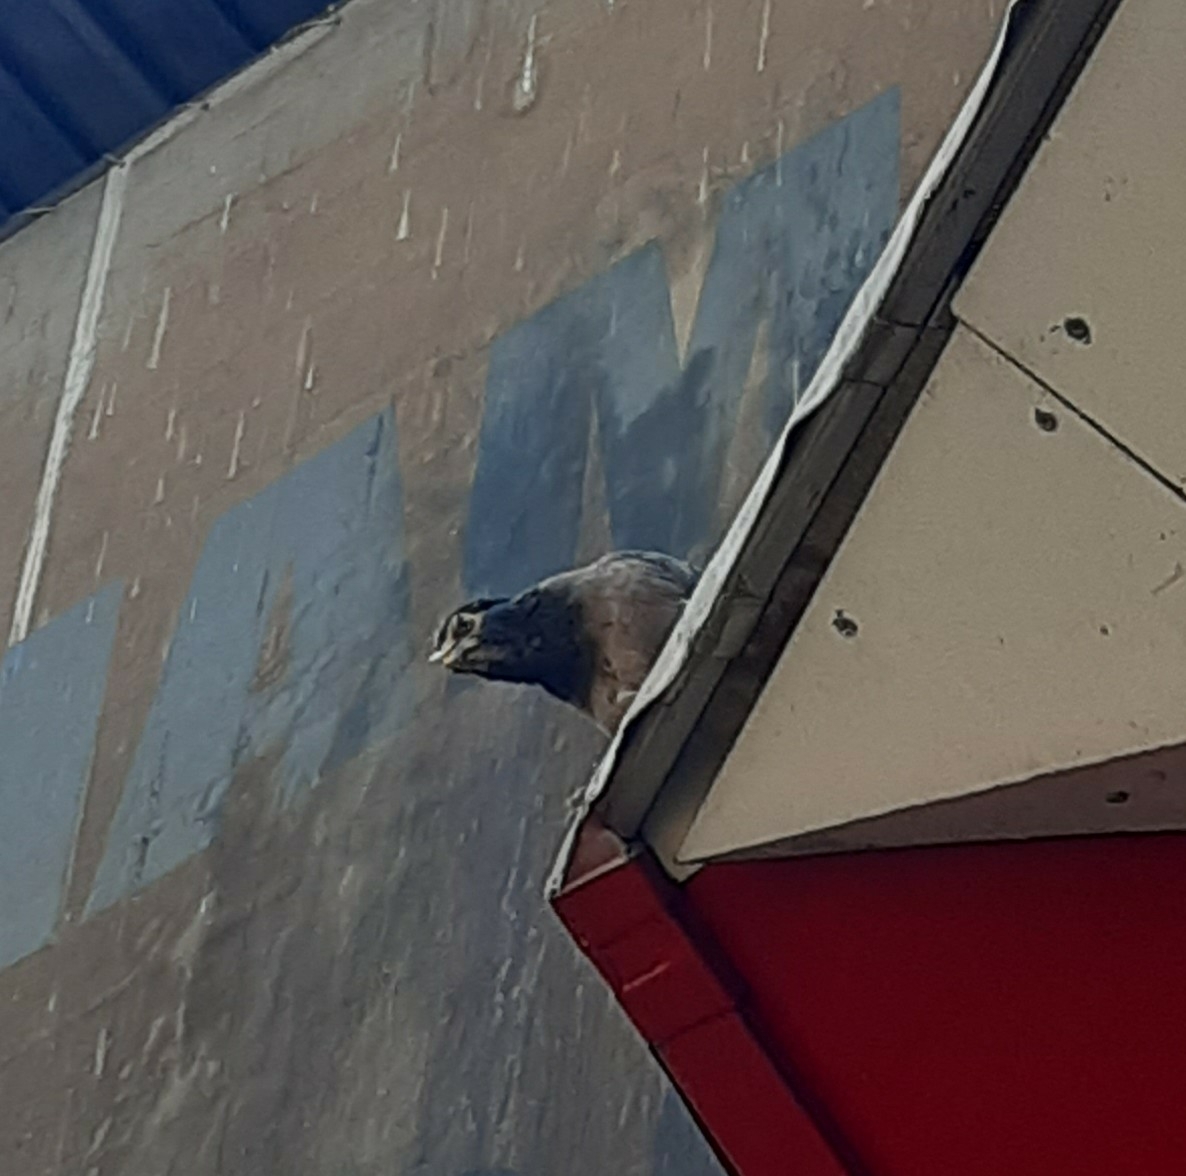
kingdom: Animalia
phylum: Chordata
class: Aves
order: Passeriformes
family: Sturnidae
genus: Acridotheres
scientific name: Acridotheres tristis
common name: Common myna
